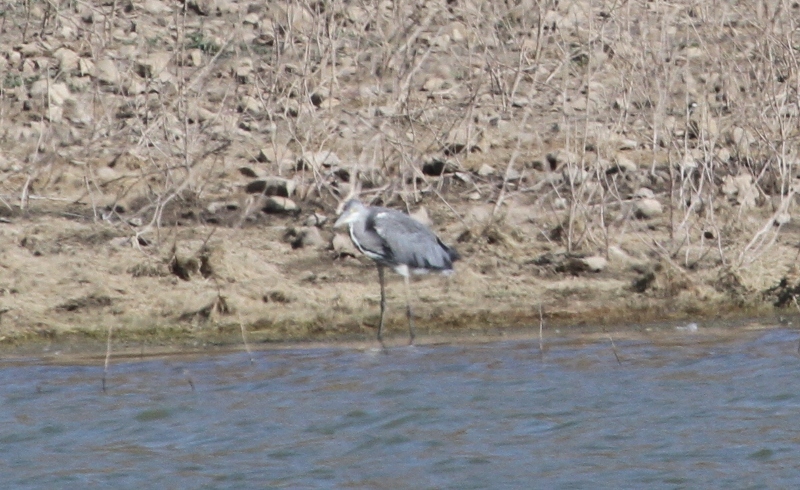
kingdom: Animalia
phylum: Chordata
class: Aves
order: Pelecaniformes
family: Ardeidae
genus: Ardea
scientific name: Ardea cinerea
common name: Grey heron
